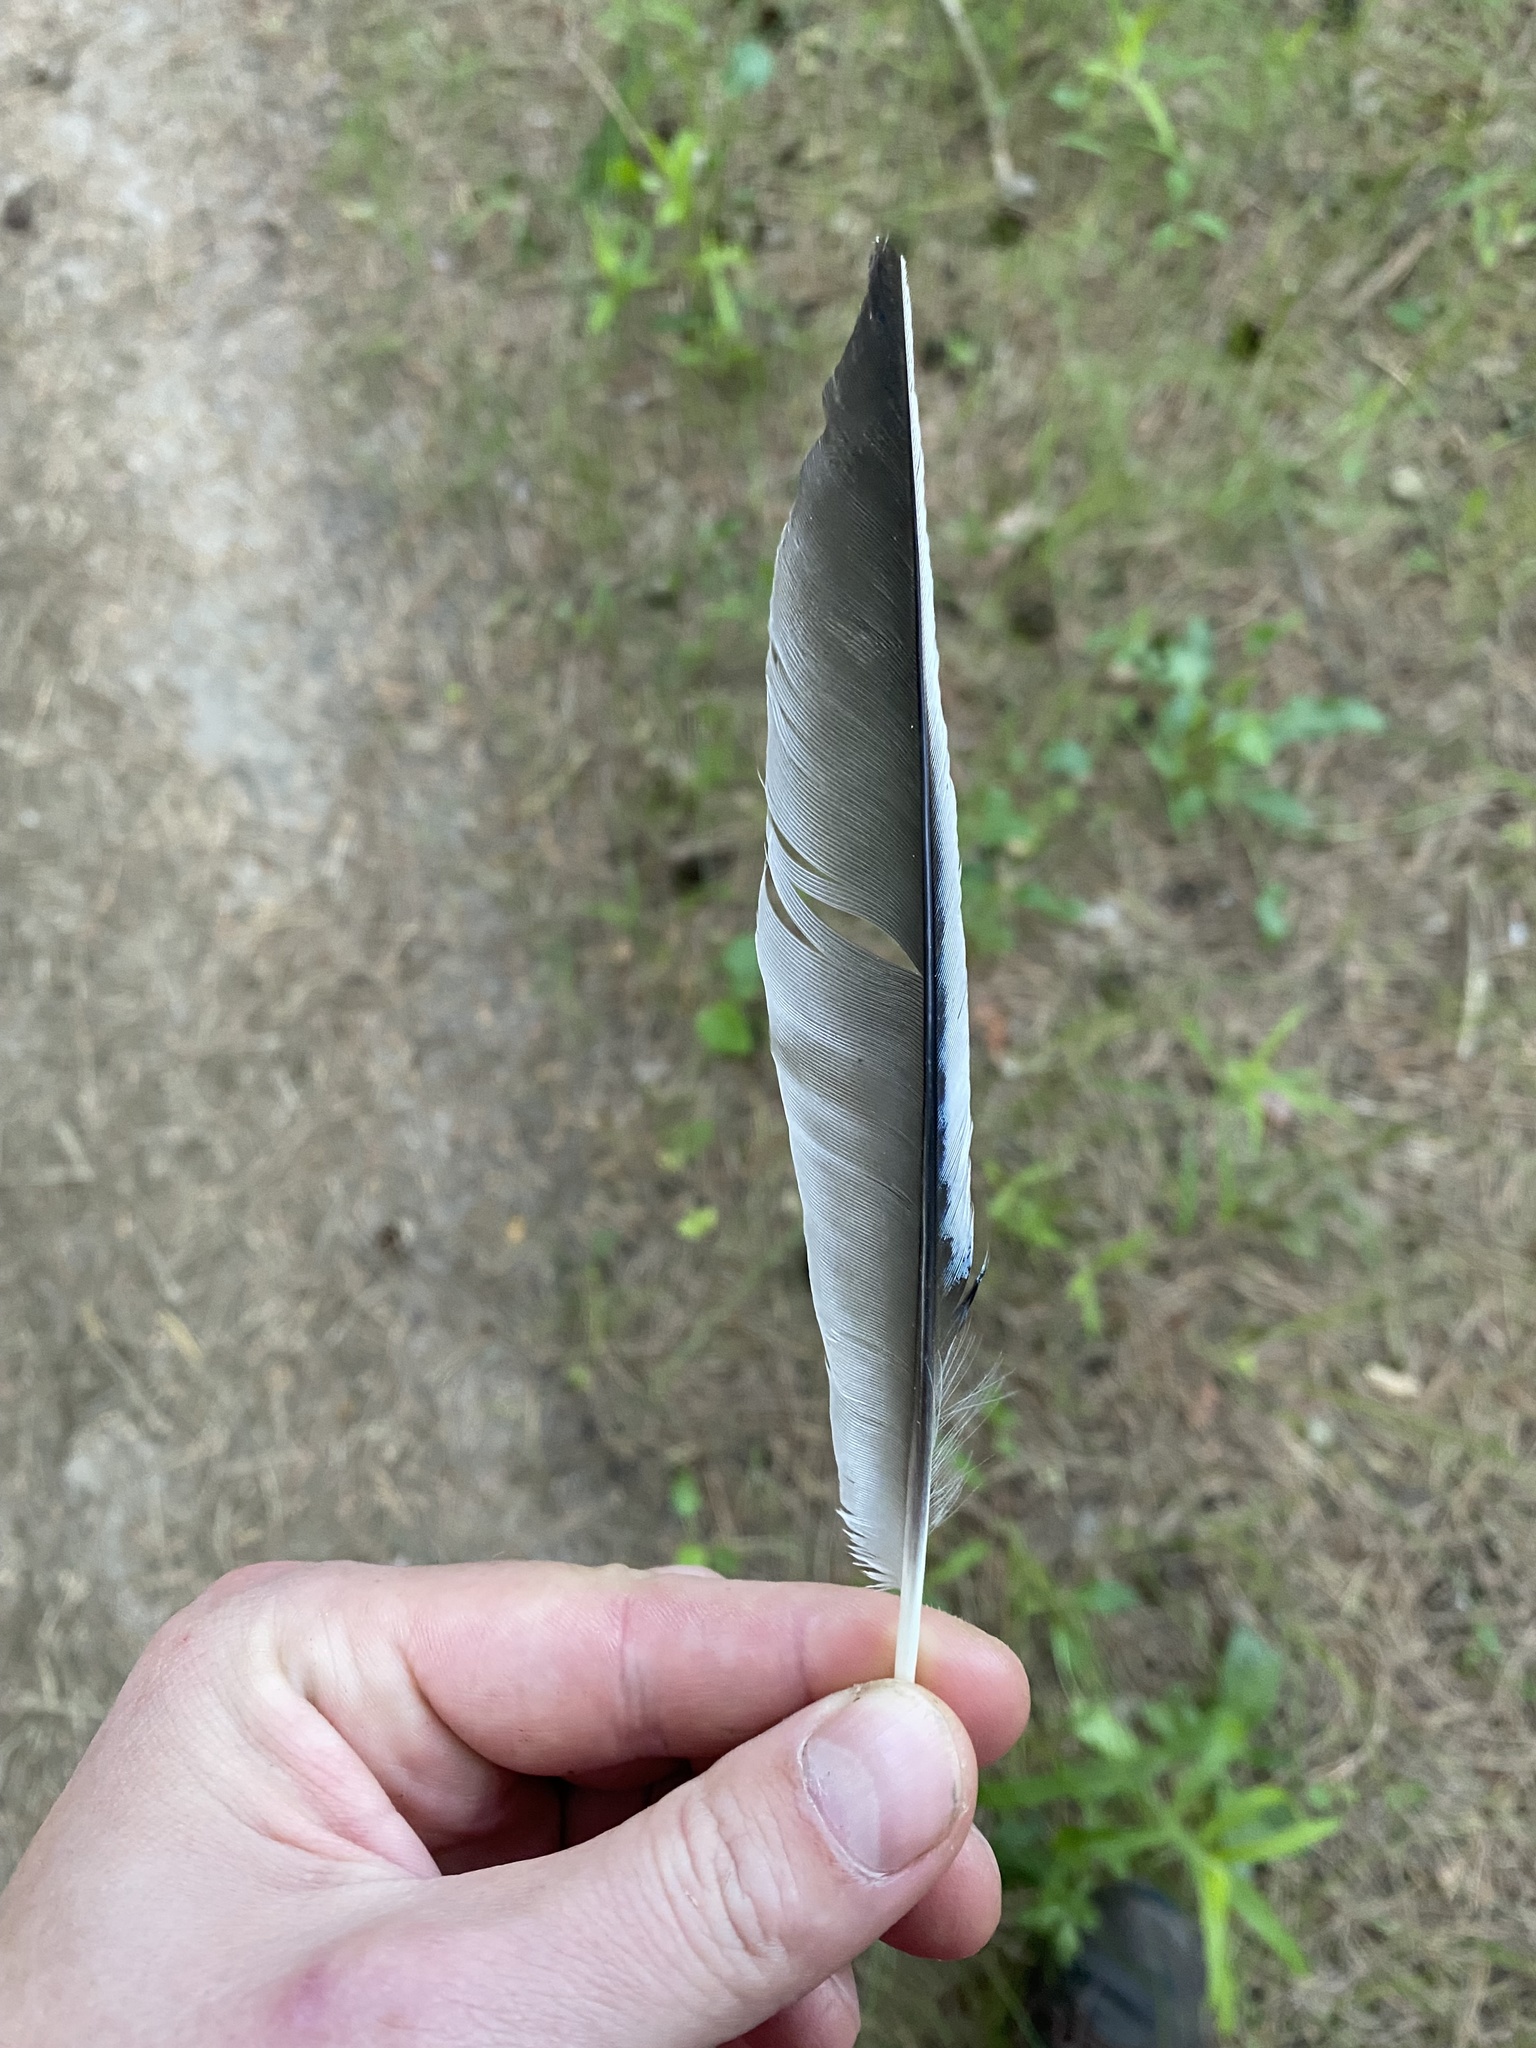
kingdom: Animalia
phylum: Chordata
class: Aves
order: Passeriformes
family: Corvidae
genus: Garrulus
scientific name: Garrulus glandarius
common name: Eurasian jay
